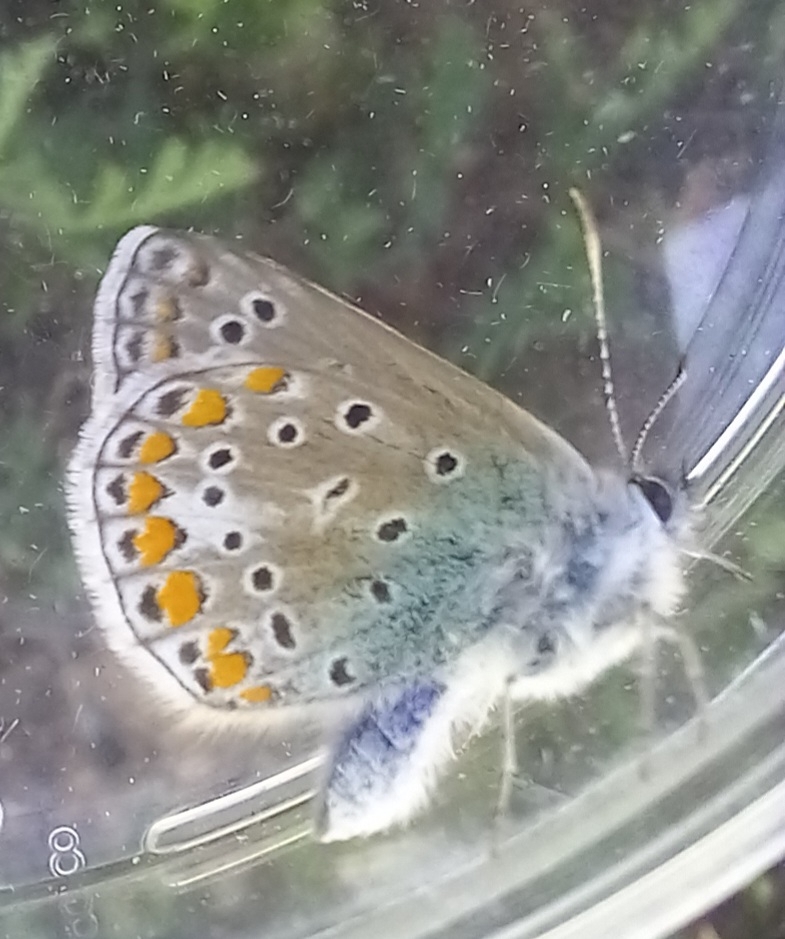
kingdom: Animalia
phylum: Arthropoda
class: Insecta
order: Lepidoptera
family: Lycaenidae
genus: Polyommatus
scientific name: Polyommatus icarus
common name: Common blue
